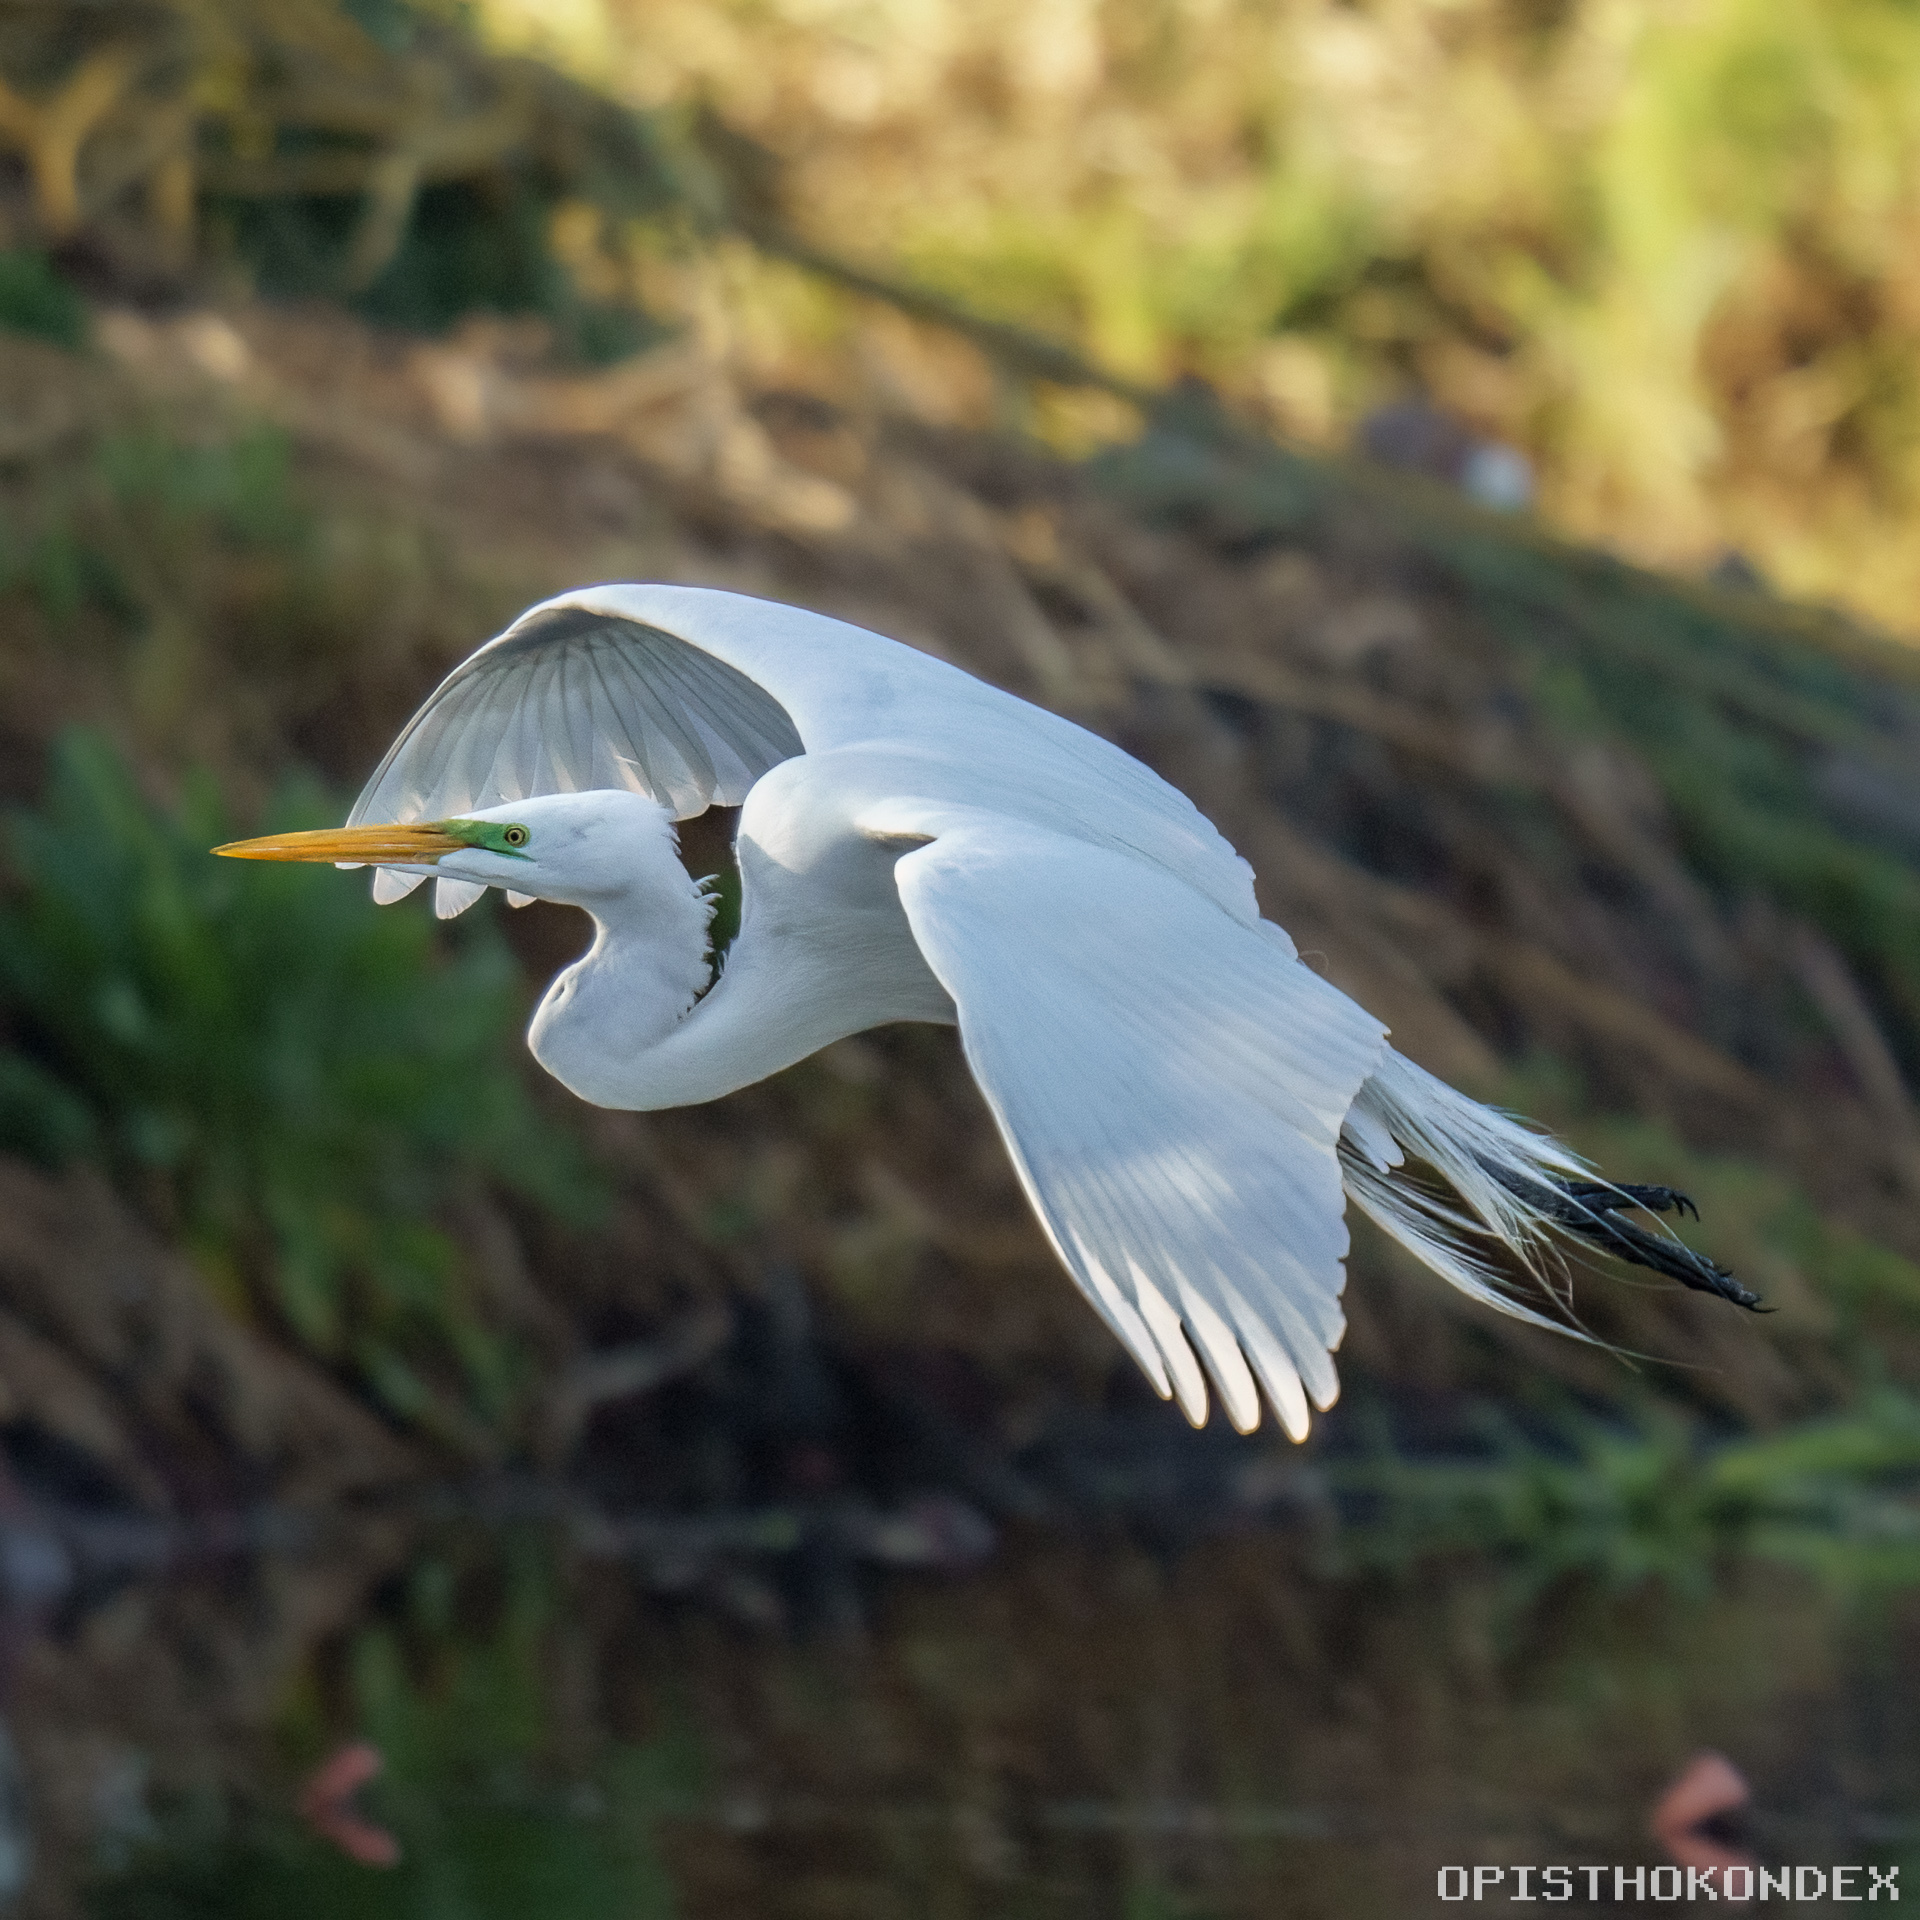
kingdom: Animalia
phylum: Chordata
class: Aves
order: Pelecaniformes
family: Ardeidae
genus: Ardea
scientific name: Ardea alba
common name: Great egret
